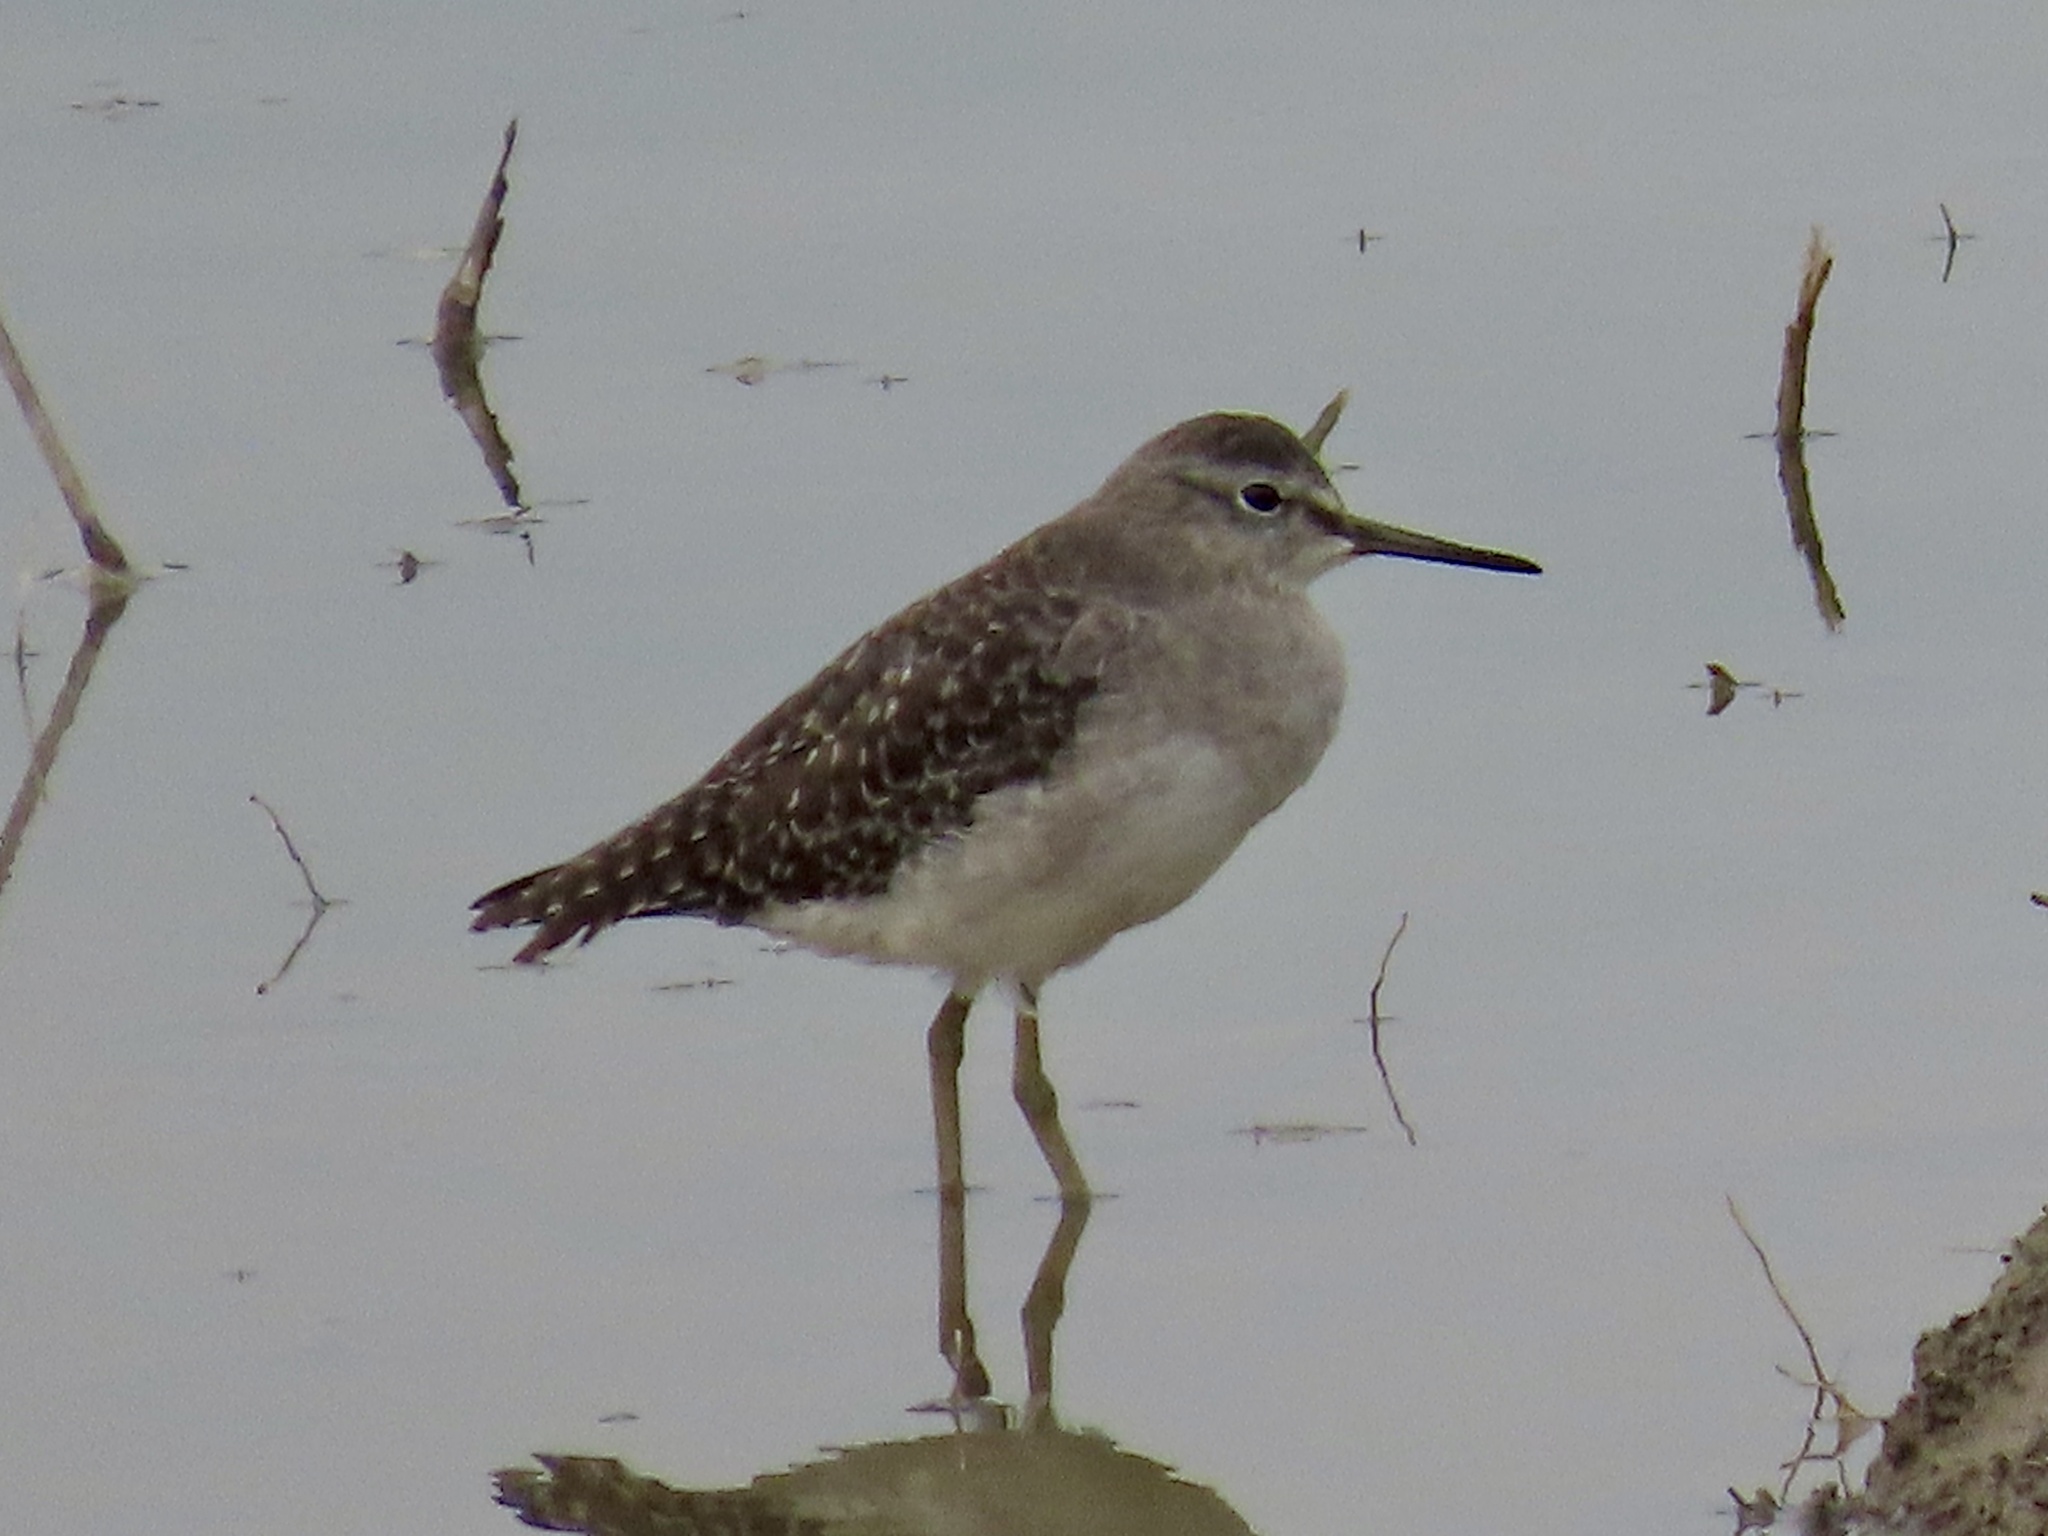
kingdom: Animalia
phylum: Chordata
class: Aves
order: Charadriiformes
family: Scolopacidae
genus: Tringa
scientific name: Tringa glareola
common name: Wood sandpiper
